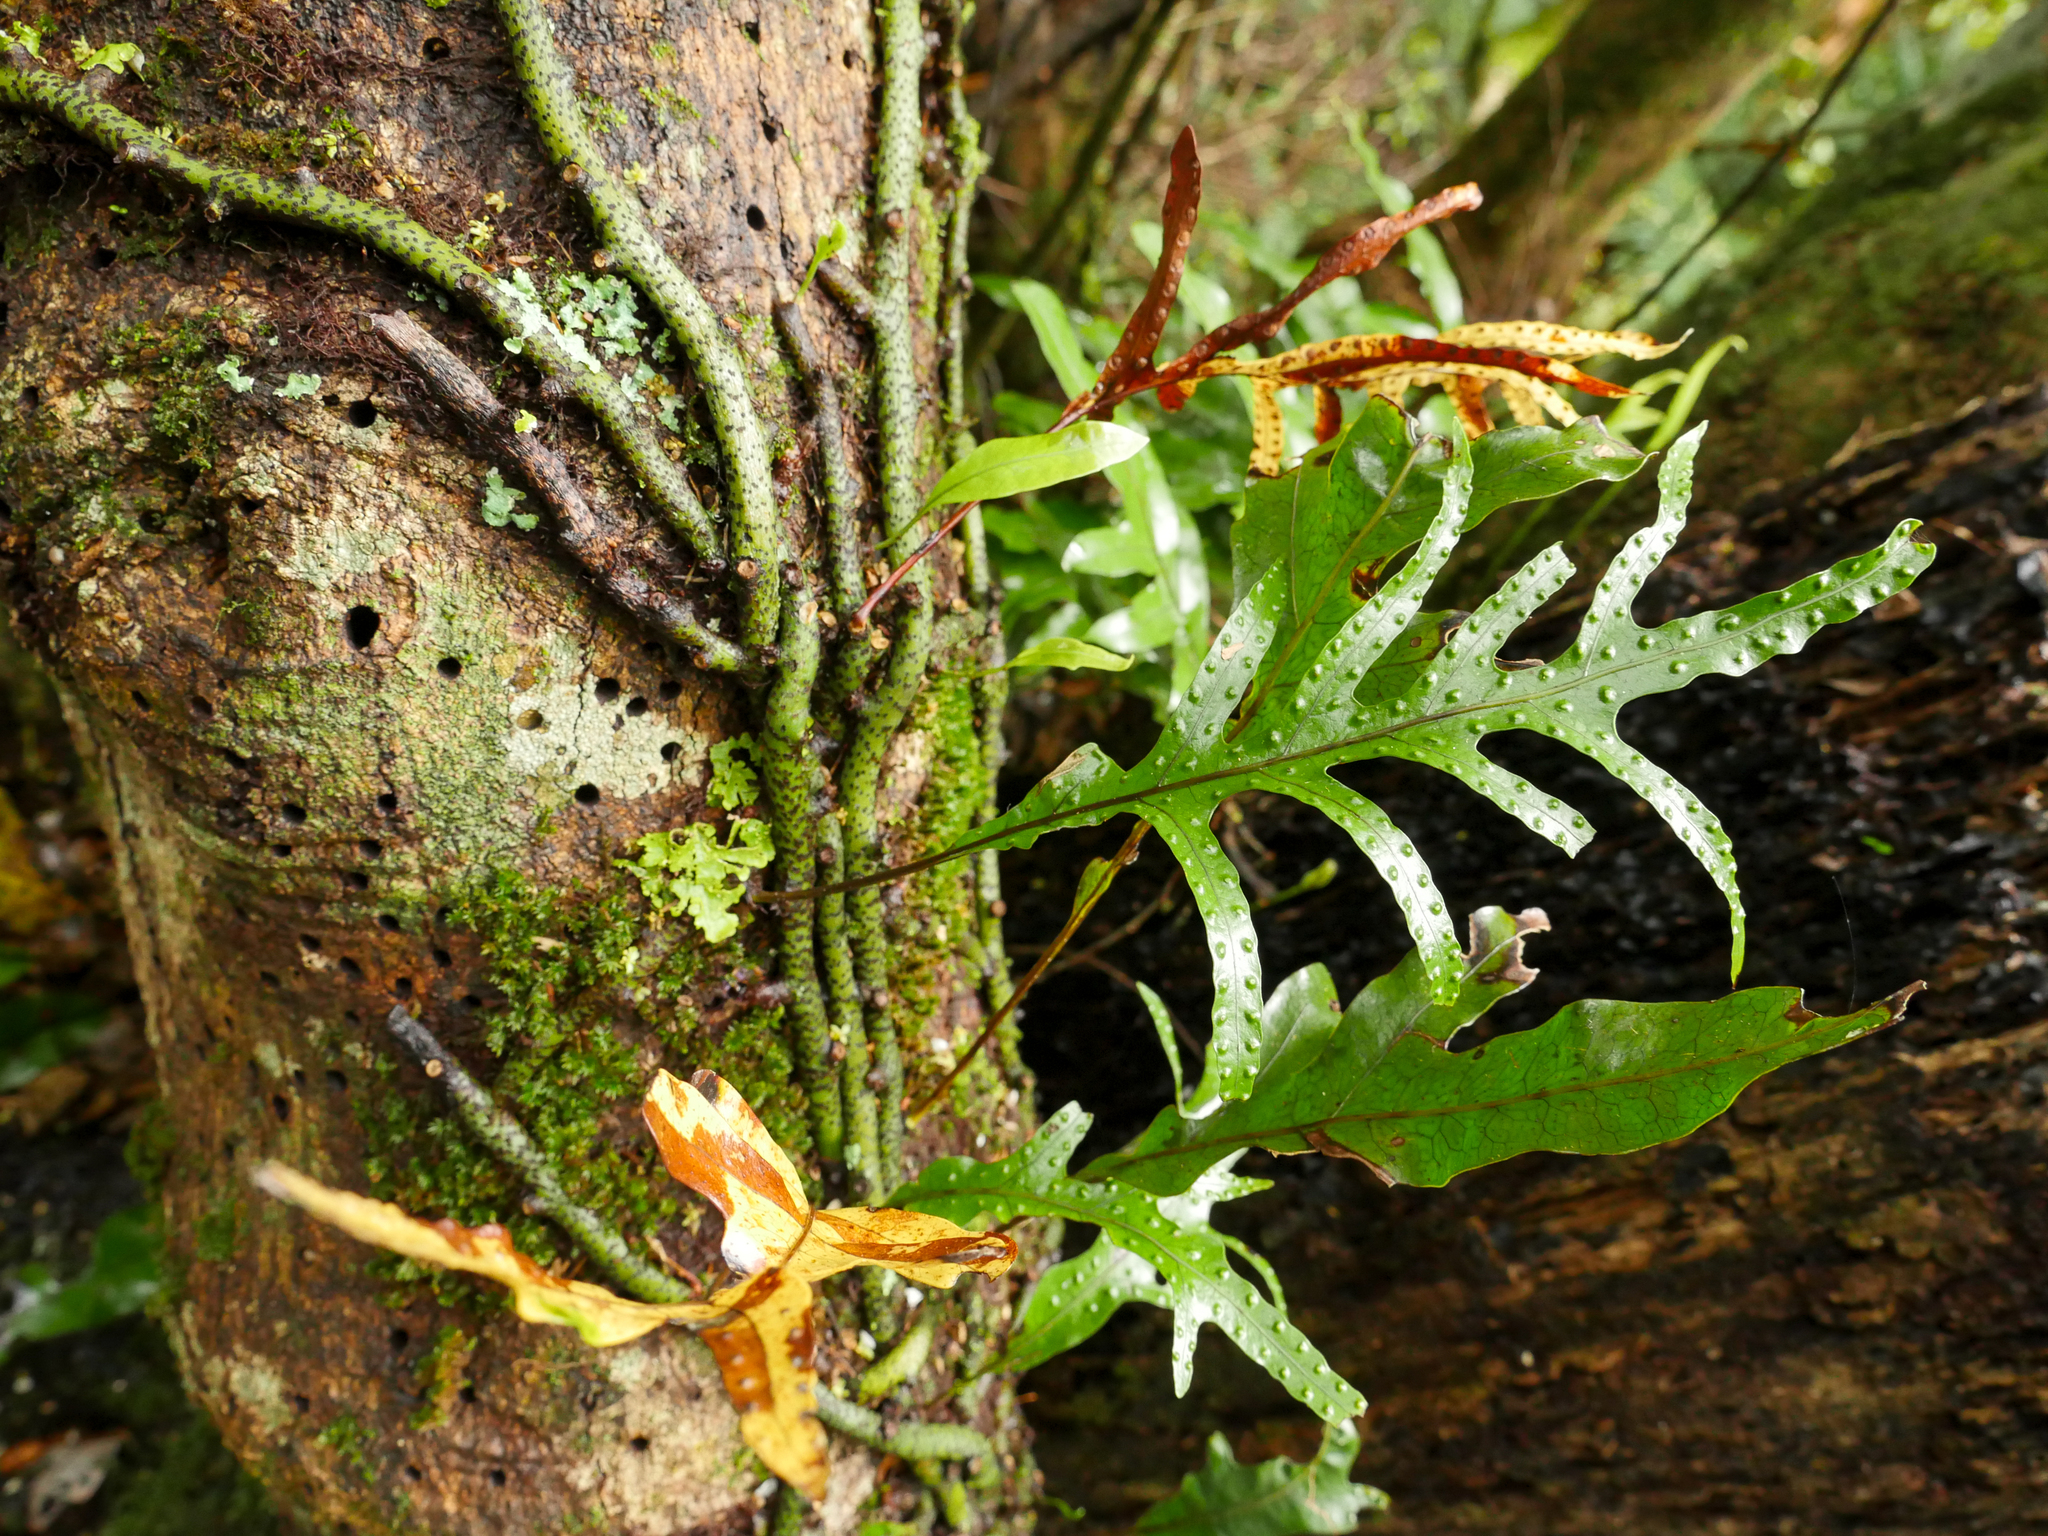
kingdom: Plantae
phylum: Tracheophyta
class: Polypodiopsida
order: Polypodiales
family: Polypodiaceae
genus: Lecanopteris
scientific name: Lecanopteris pustulata
